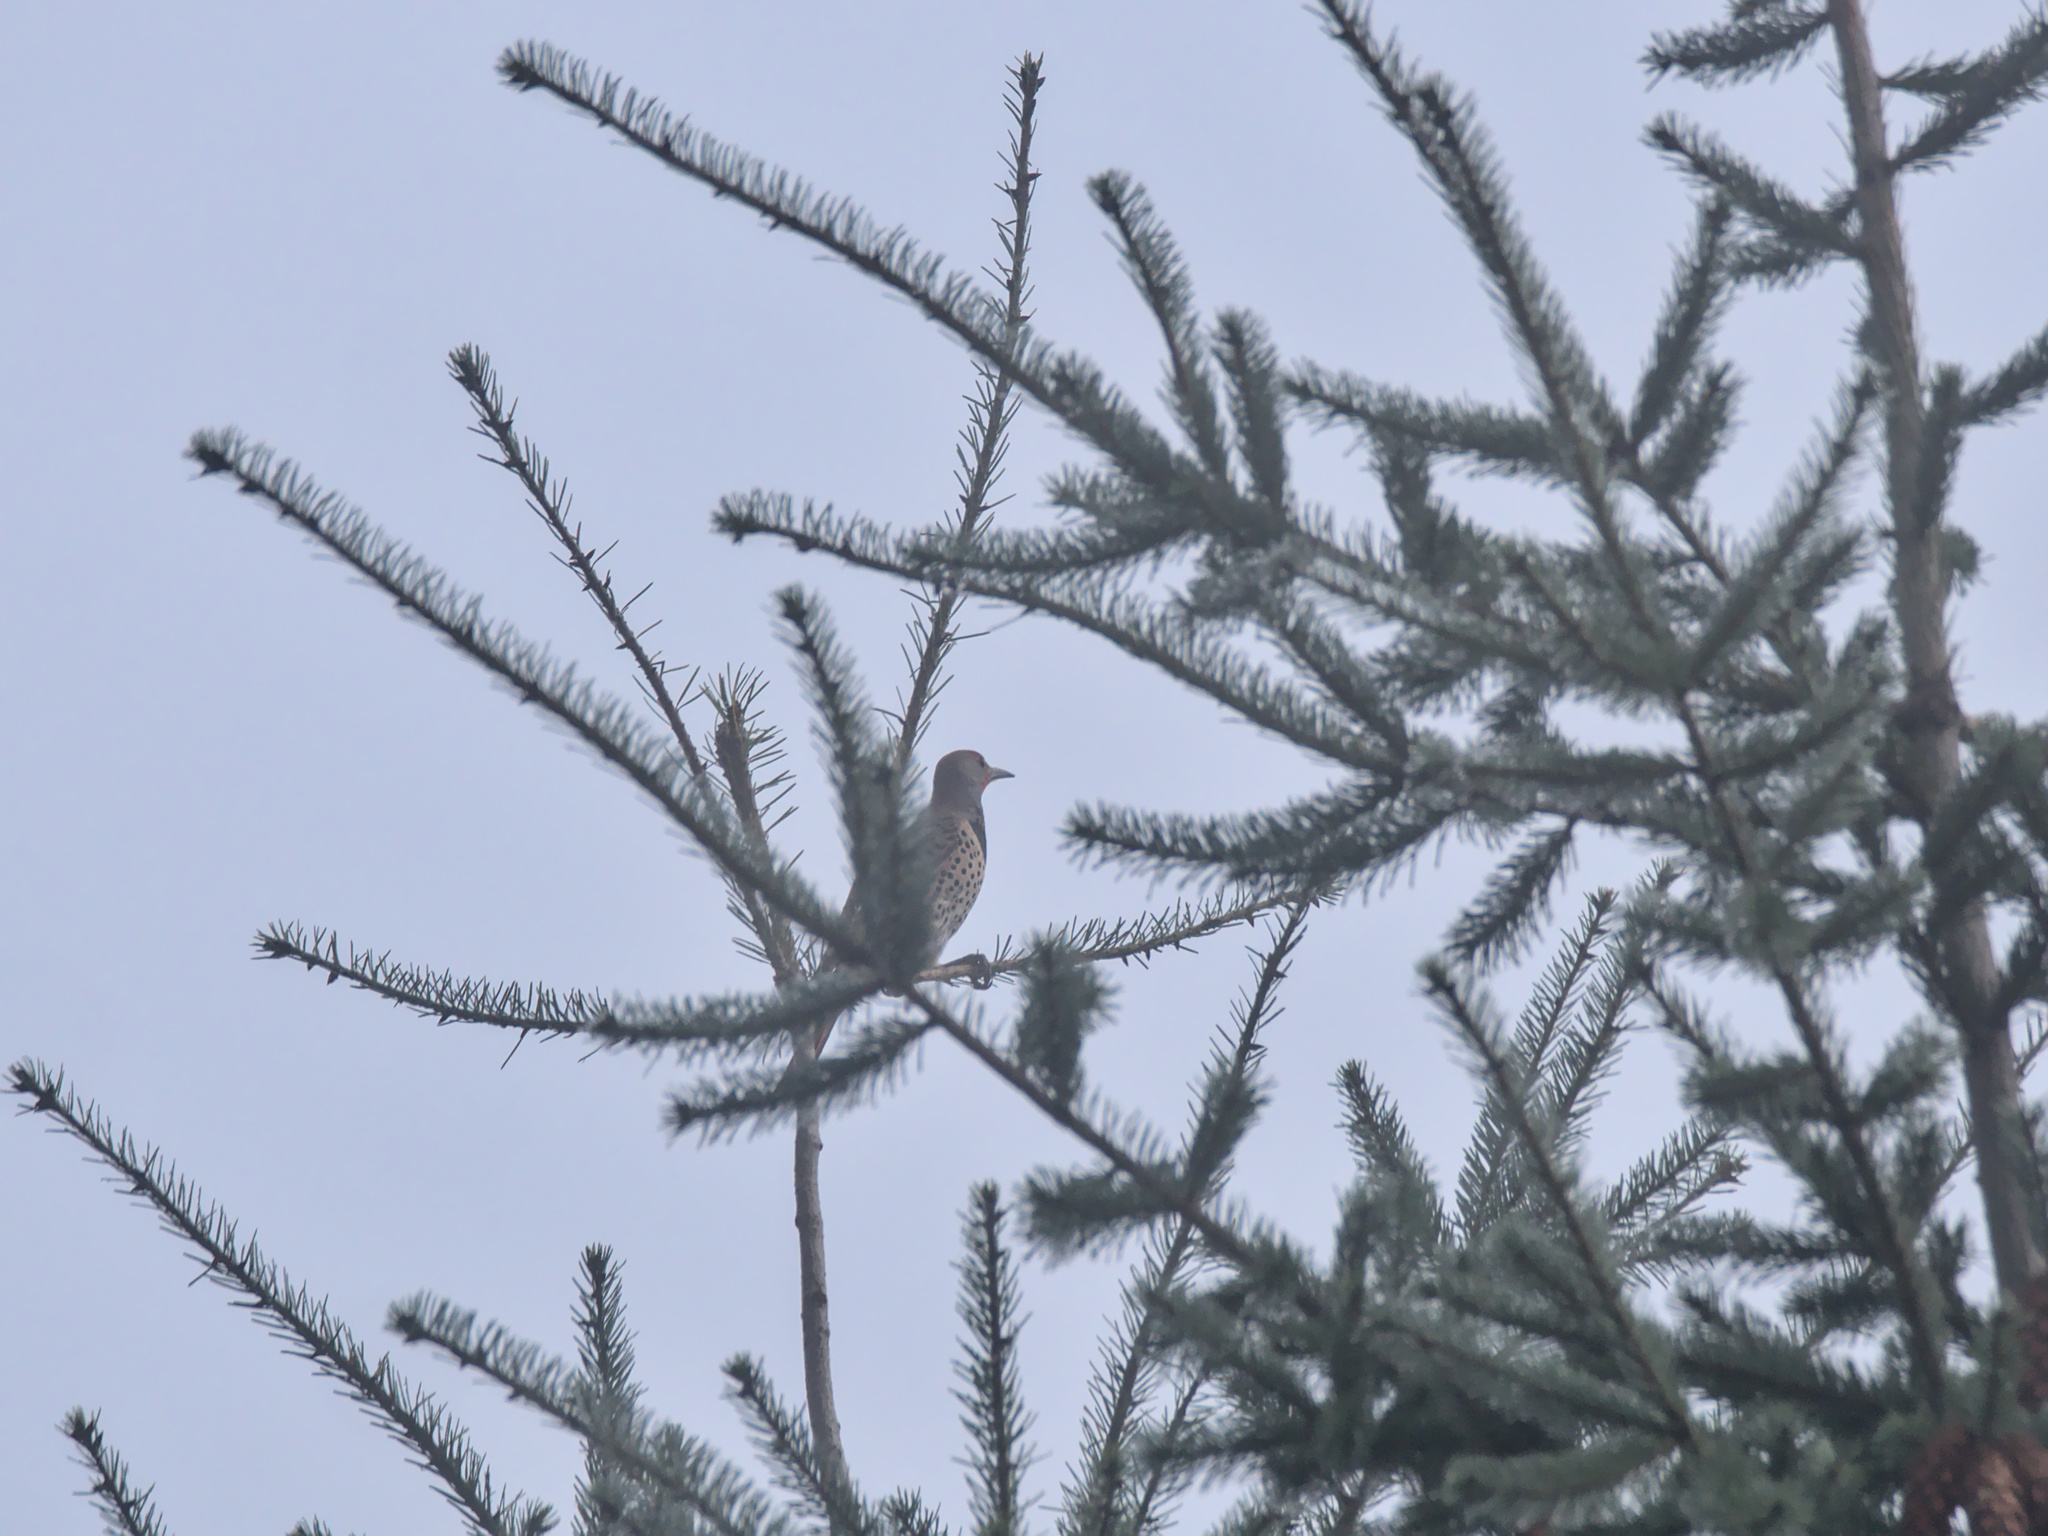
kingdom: Animalia
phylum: Chordata
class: Aves
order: Piciformes
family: Picidae
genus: Colaptes
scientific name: Colaptes auratus
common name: Northern flicker
